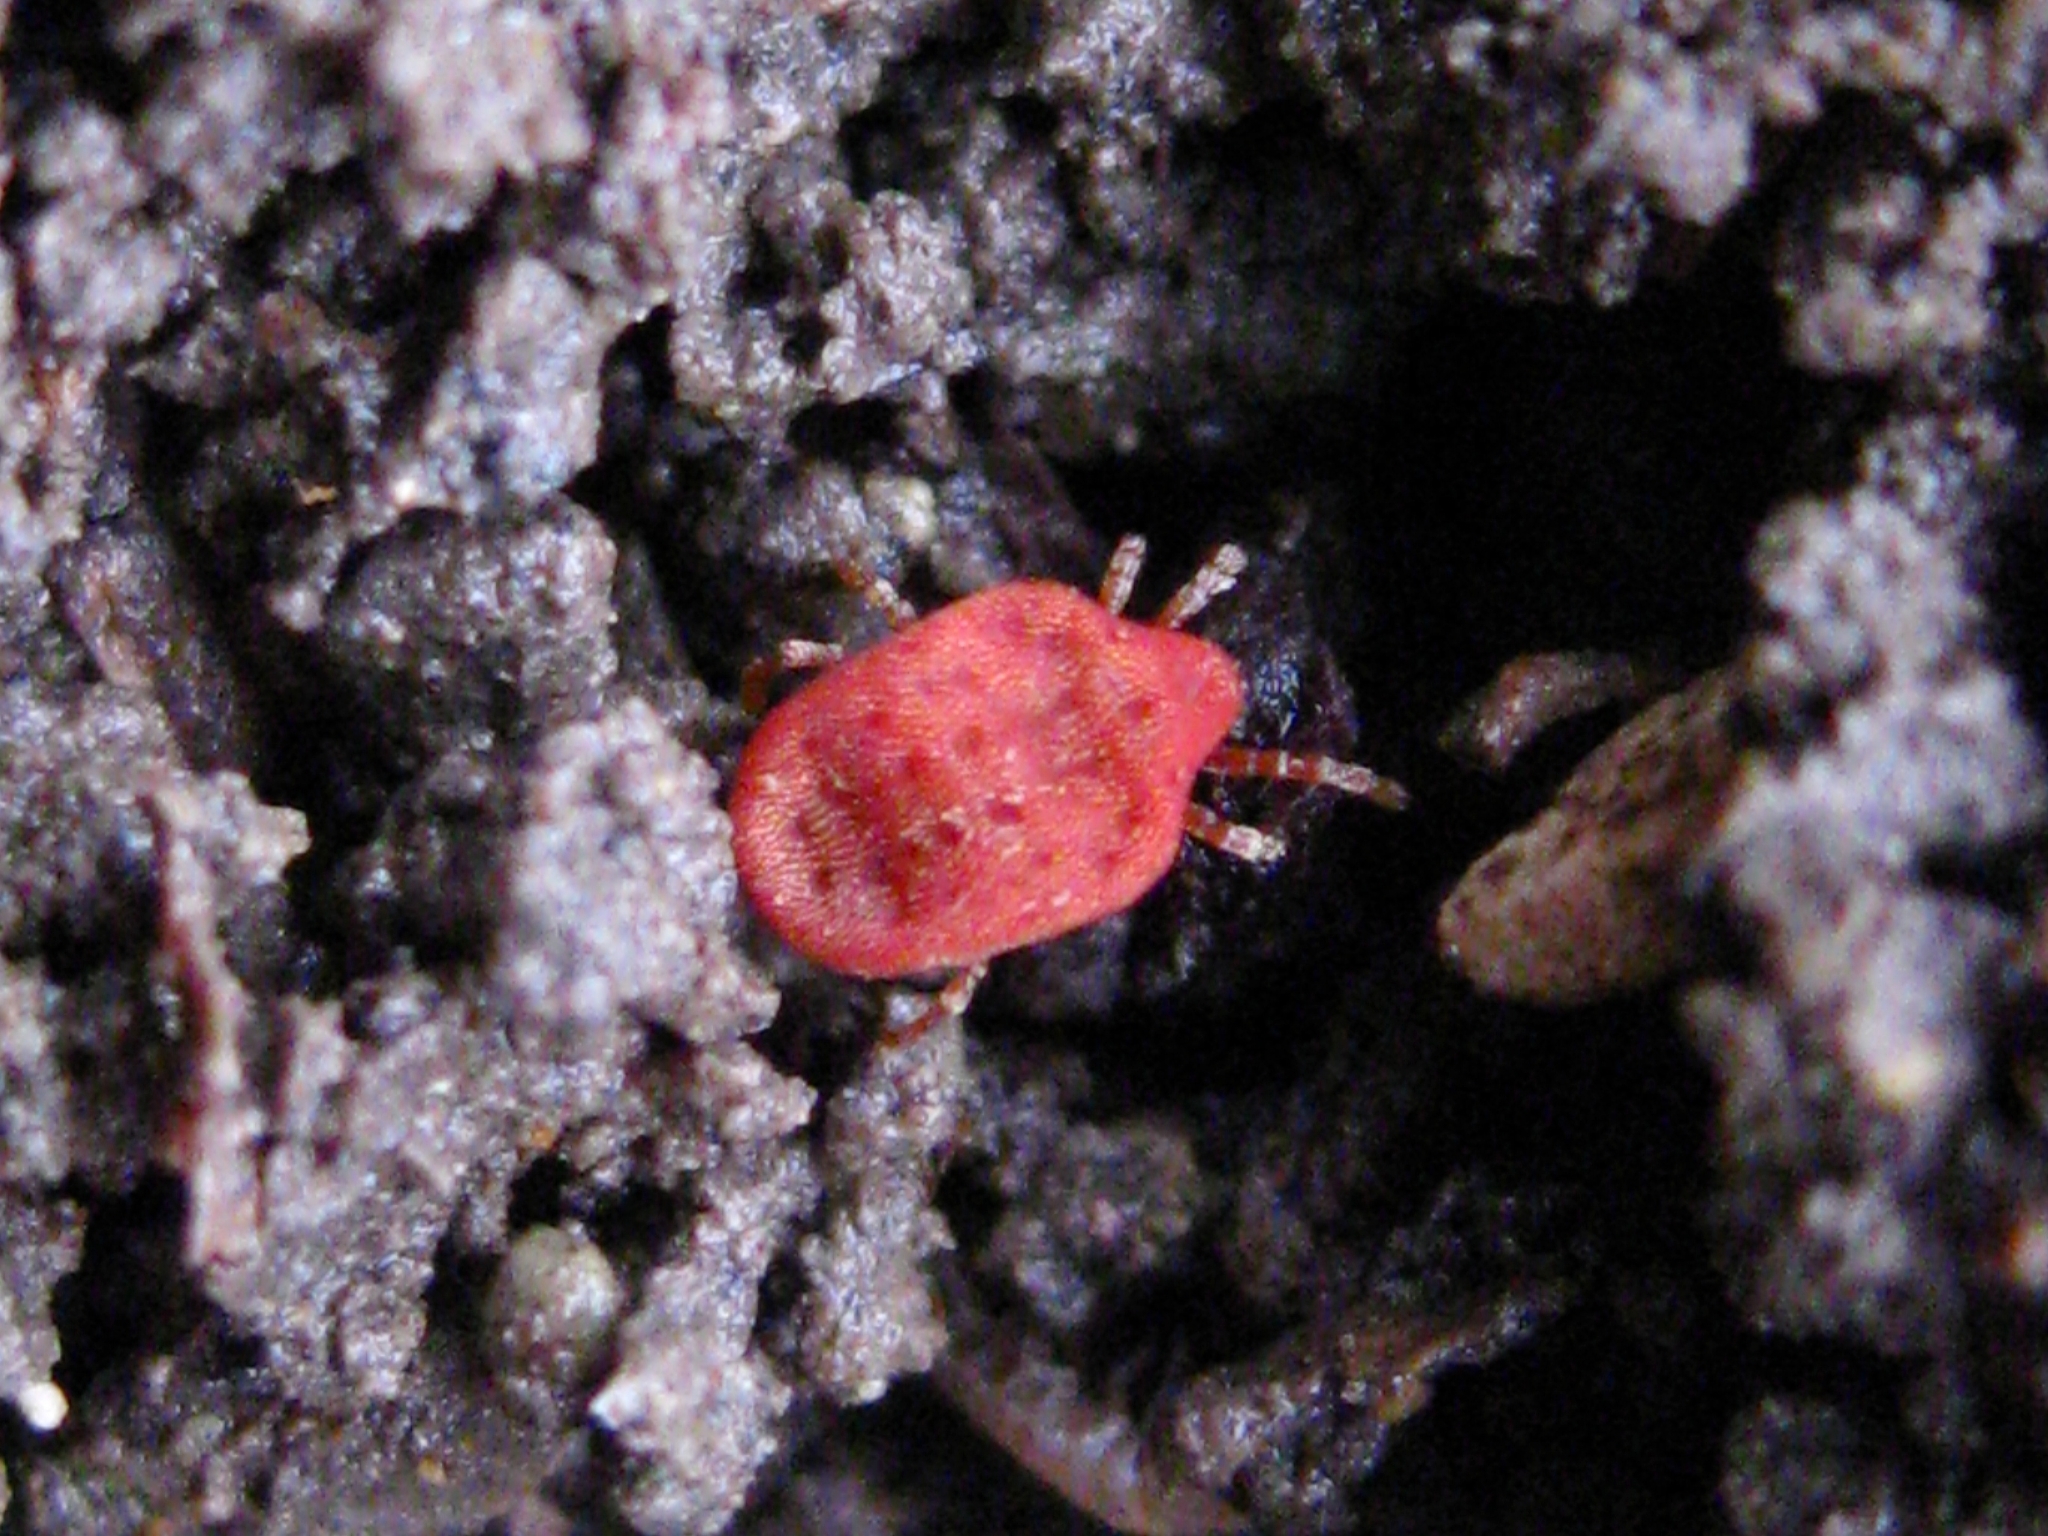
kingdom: Animalia
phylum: Arthropoda
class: Arachnida
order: Trombidiformes
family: Calyptostomatidae
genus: Calyptostoma
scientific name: Calyptostoma
